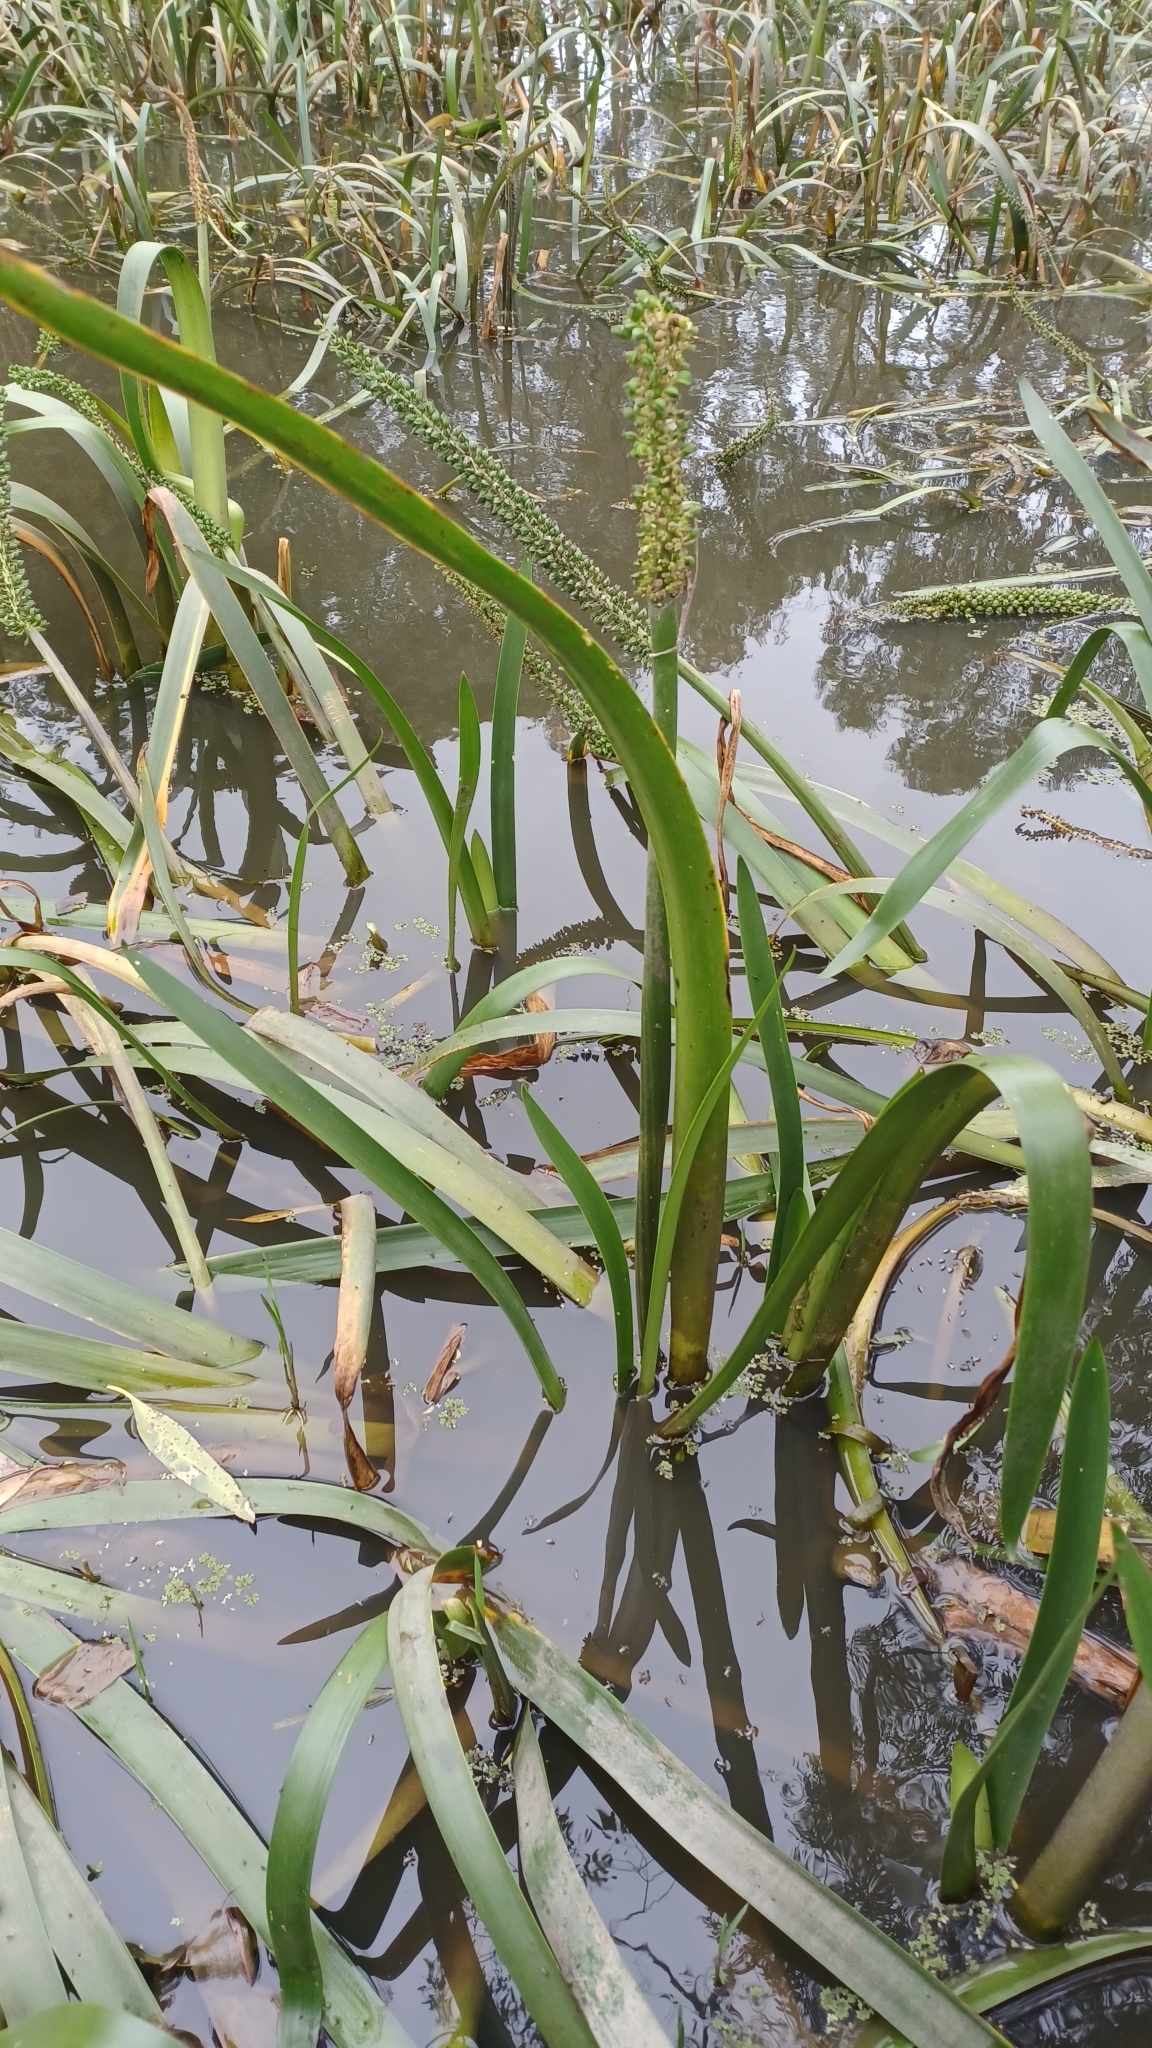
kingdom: Plantae
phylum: Tracheophyta
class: Liliopsida
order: Alismatales
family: Juncaginaceae
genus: Cycnogeton
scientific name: Cycnogeton procerum
